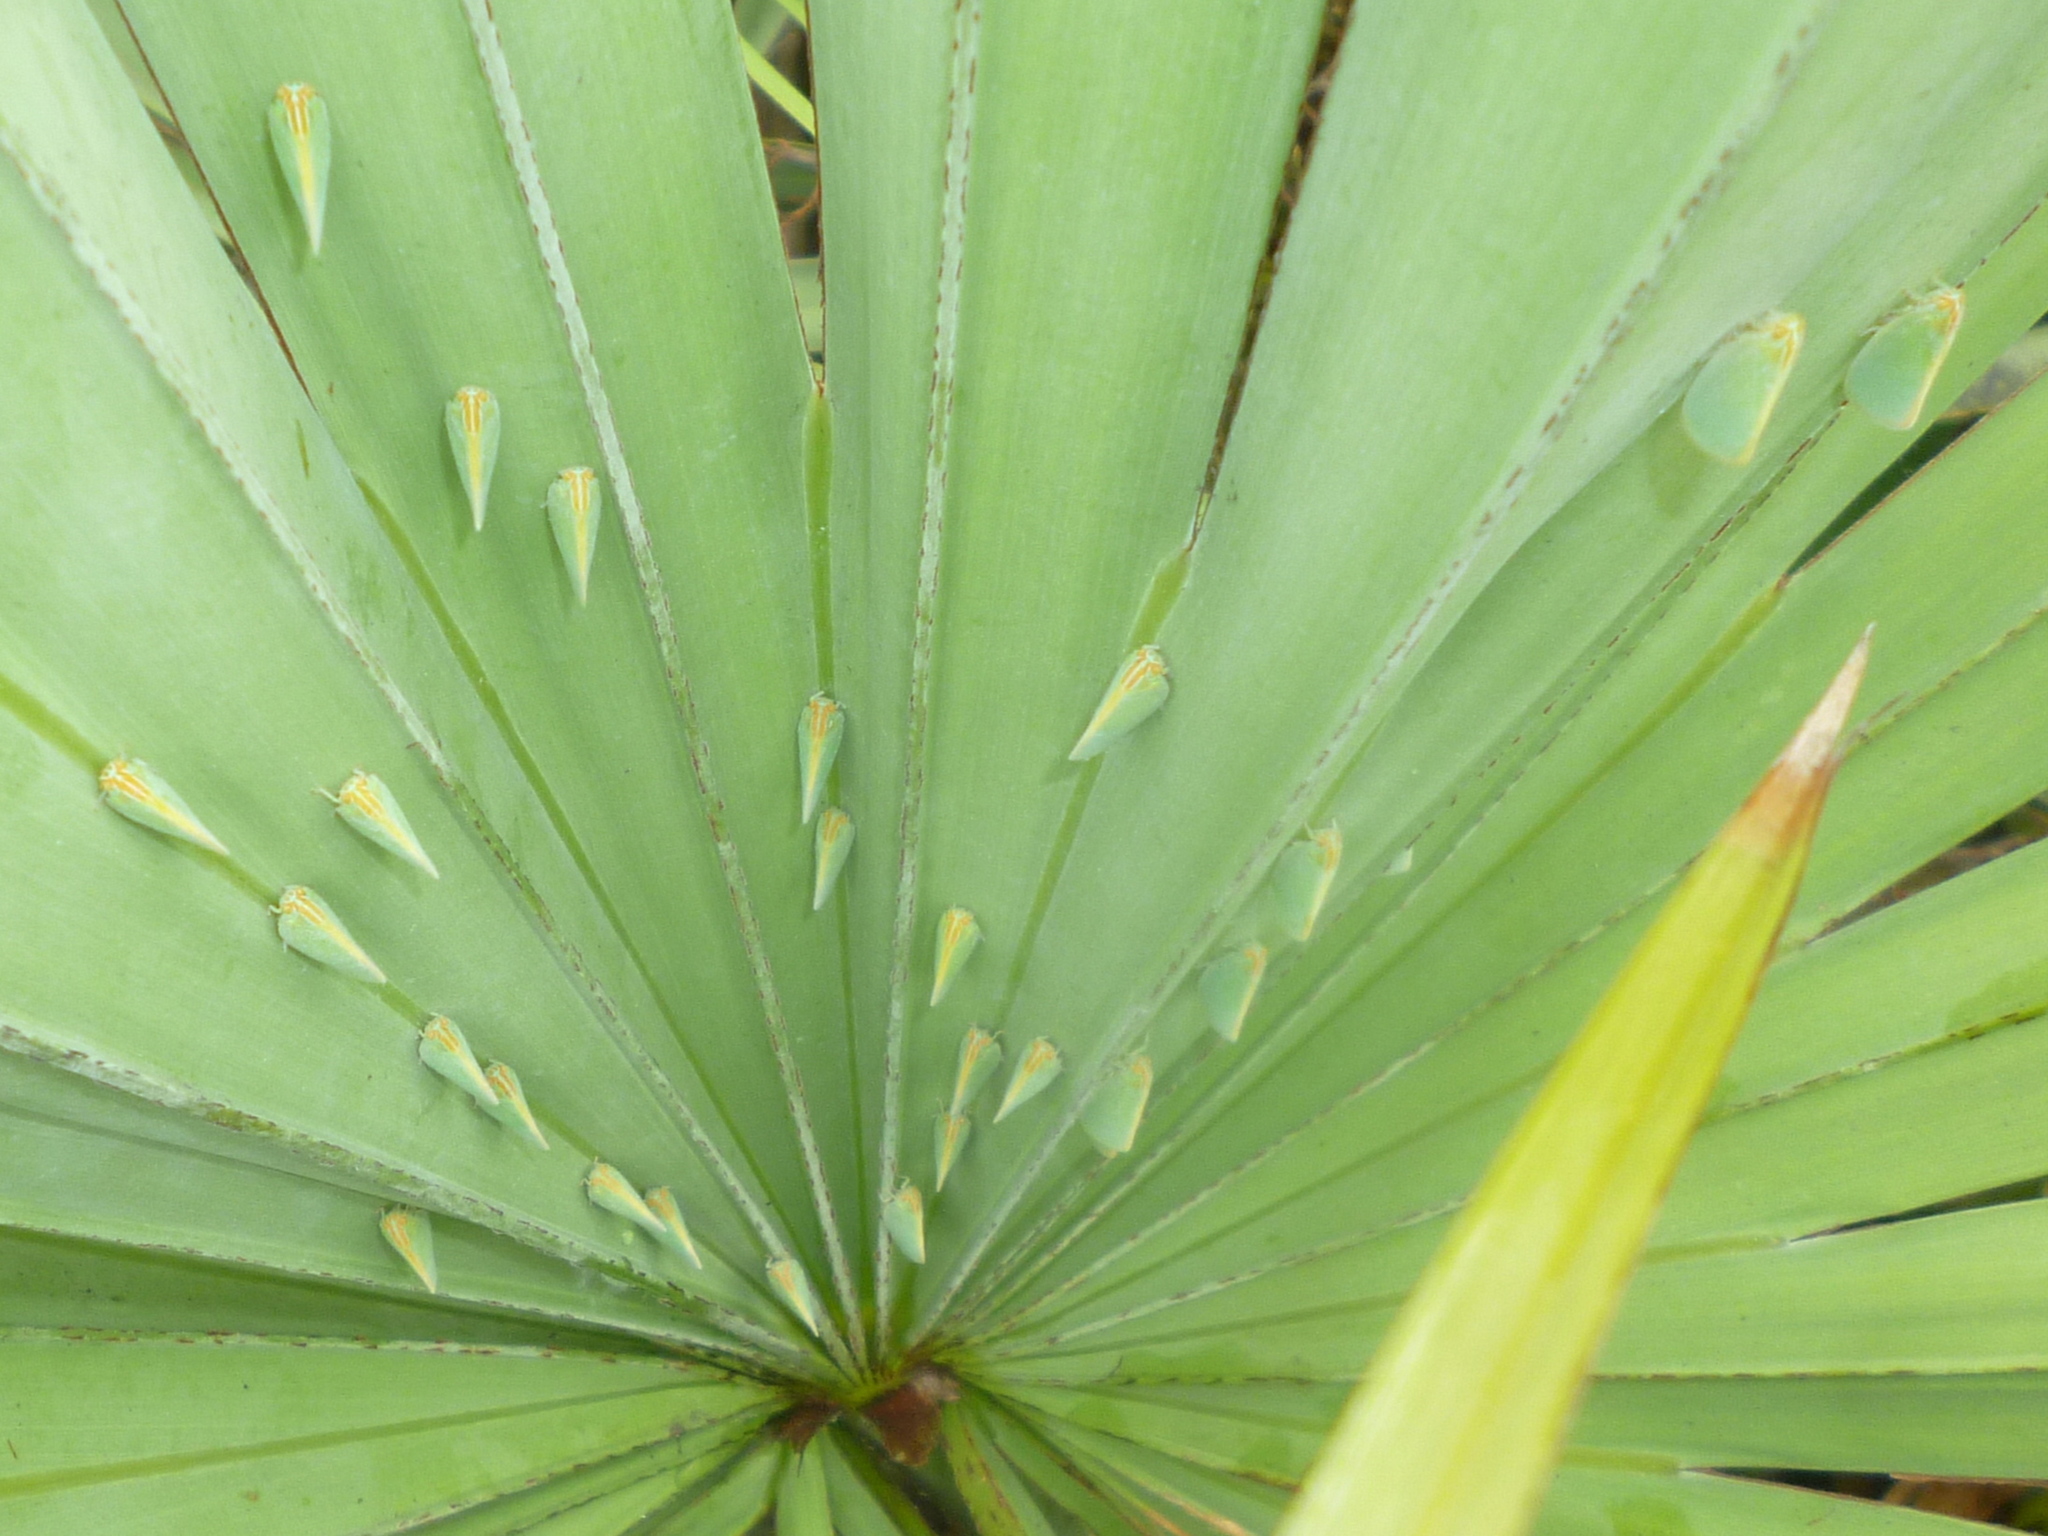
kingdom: Animalia
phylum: Arthropoda
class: Insecta
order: Hemiptera
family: Flatidae
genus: Ormenaria
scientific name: Ormenaria rufifascia
